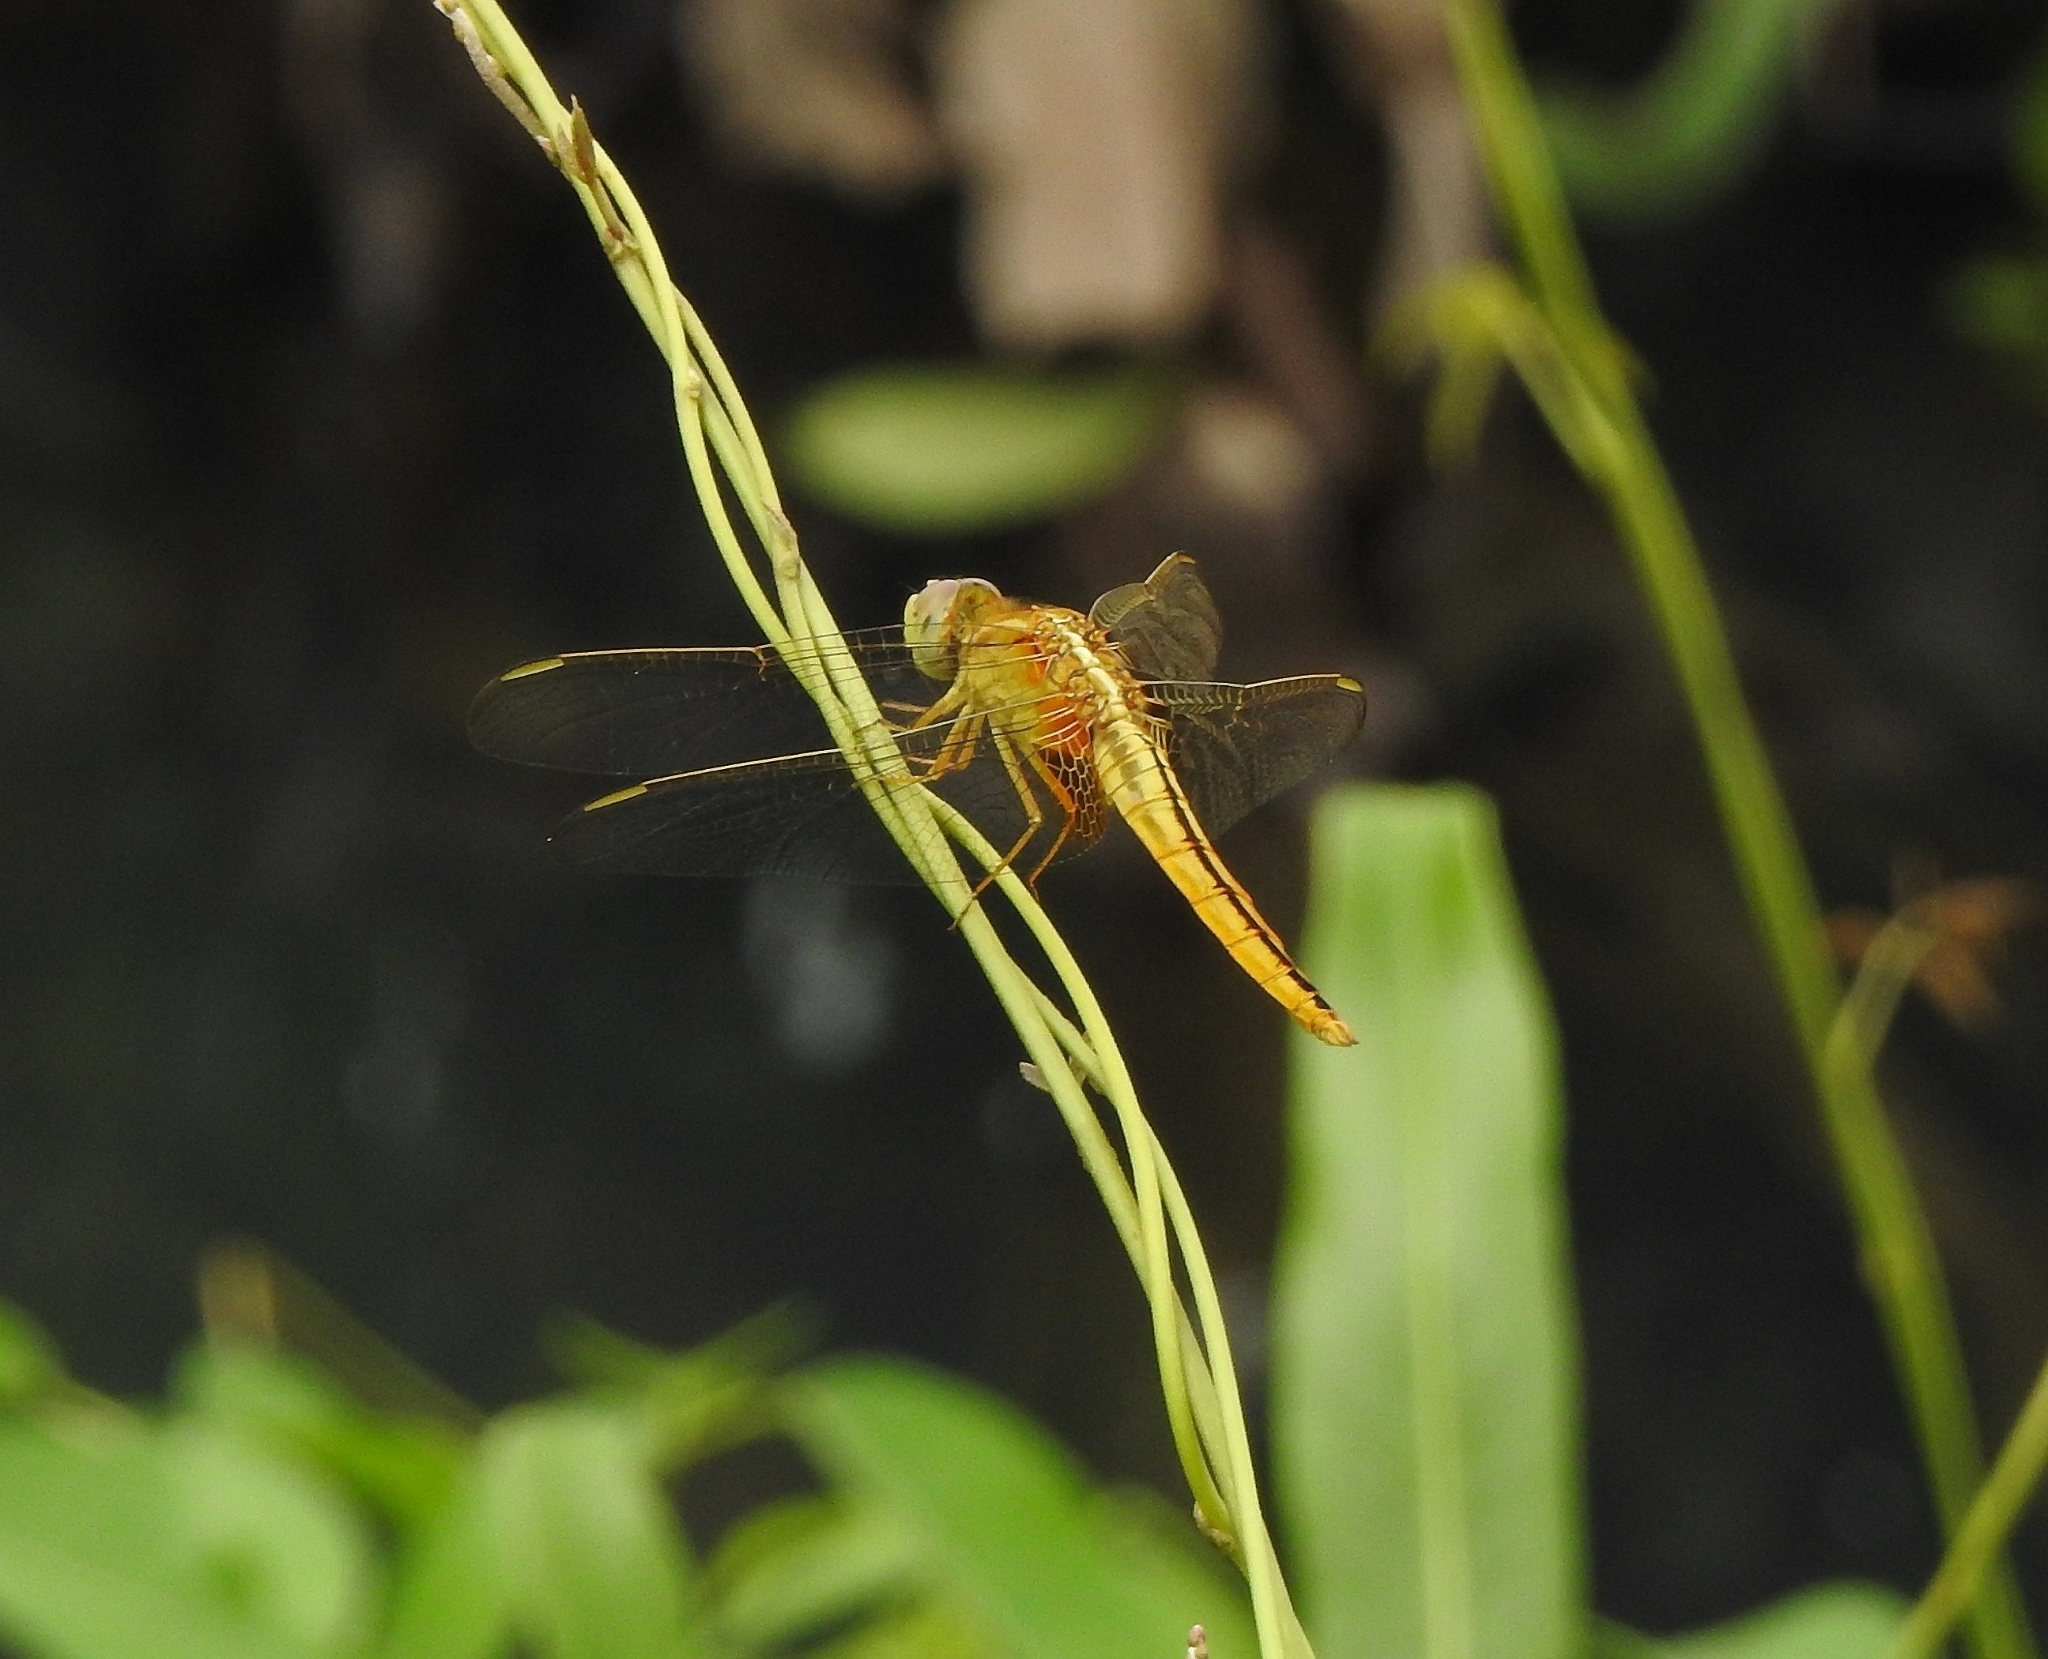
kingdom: Animalia
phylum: Arthropoda
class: Insecta
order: Odonata
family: Libellulidae
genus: Crocothemis
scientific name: Crocothemis servilia
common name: Scarlet skimmer
